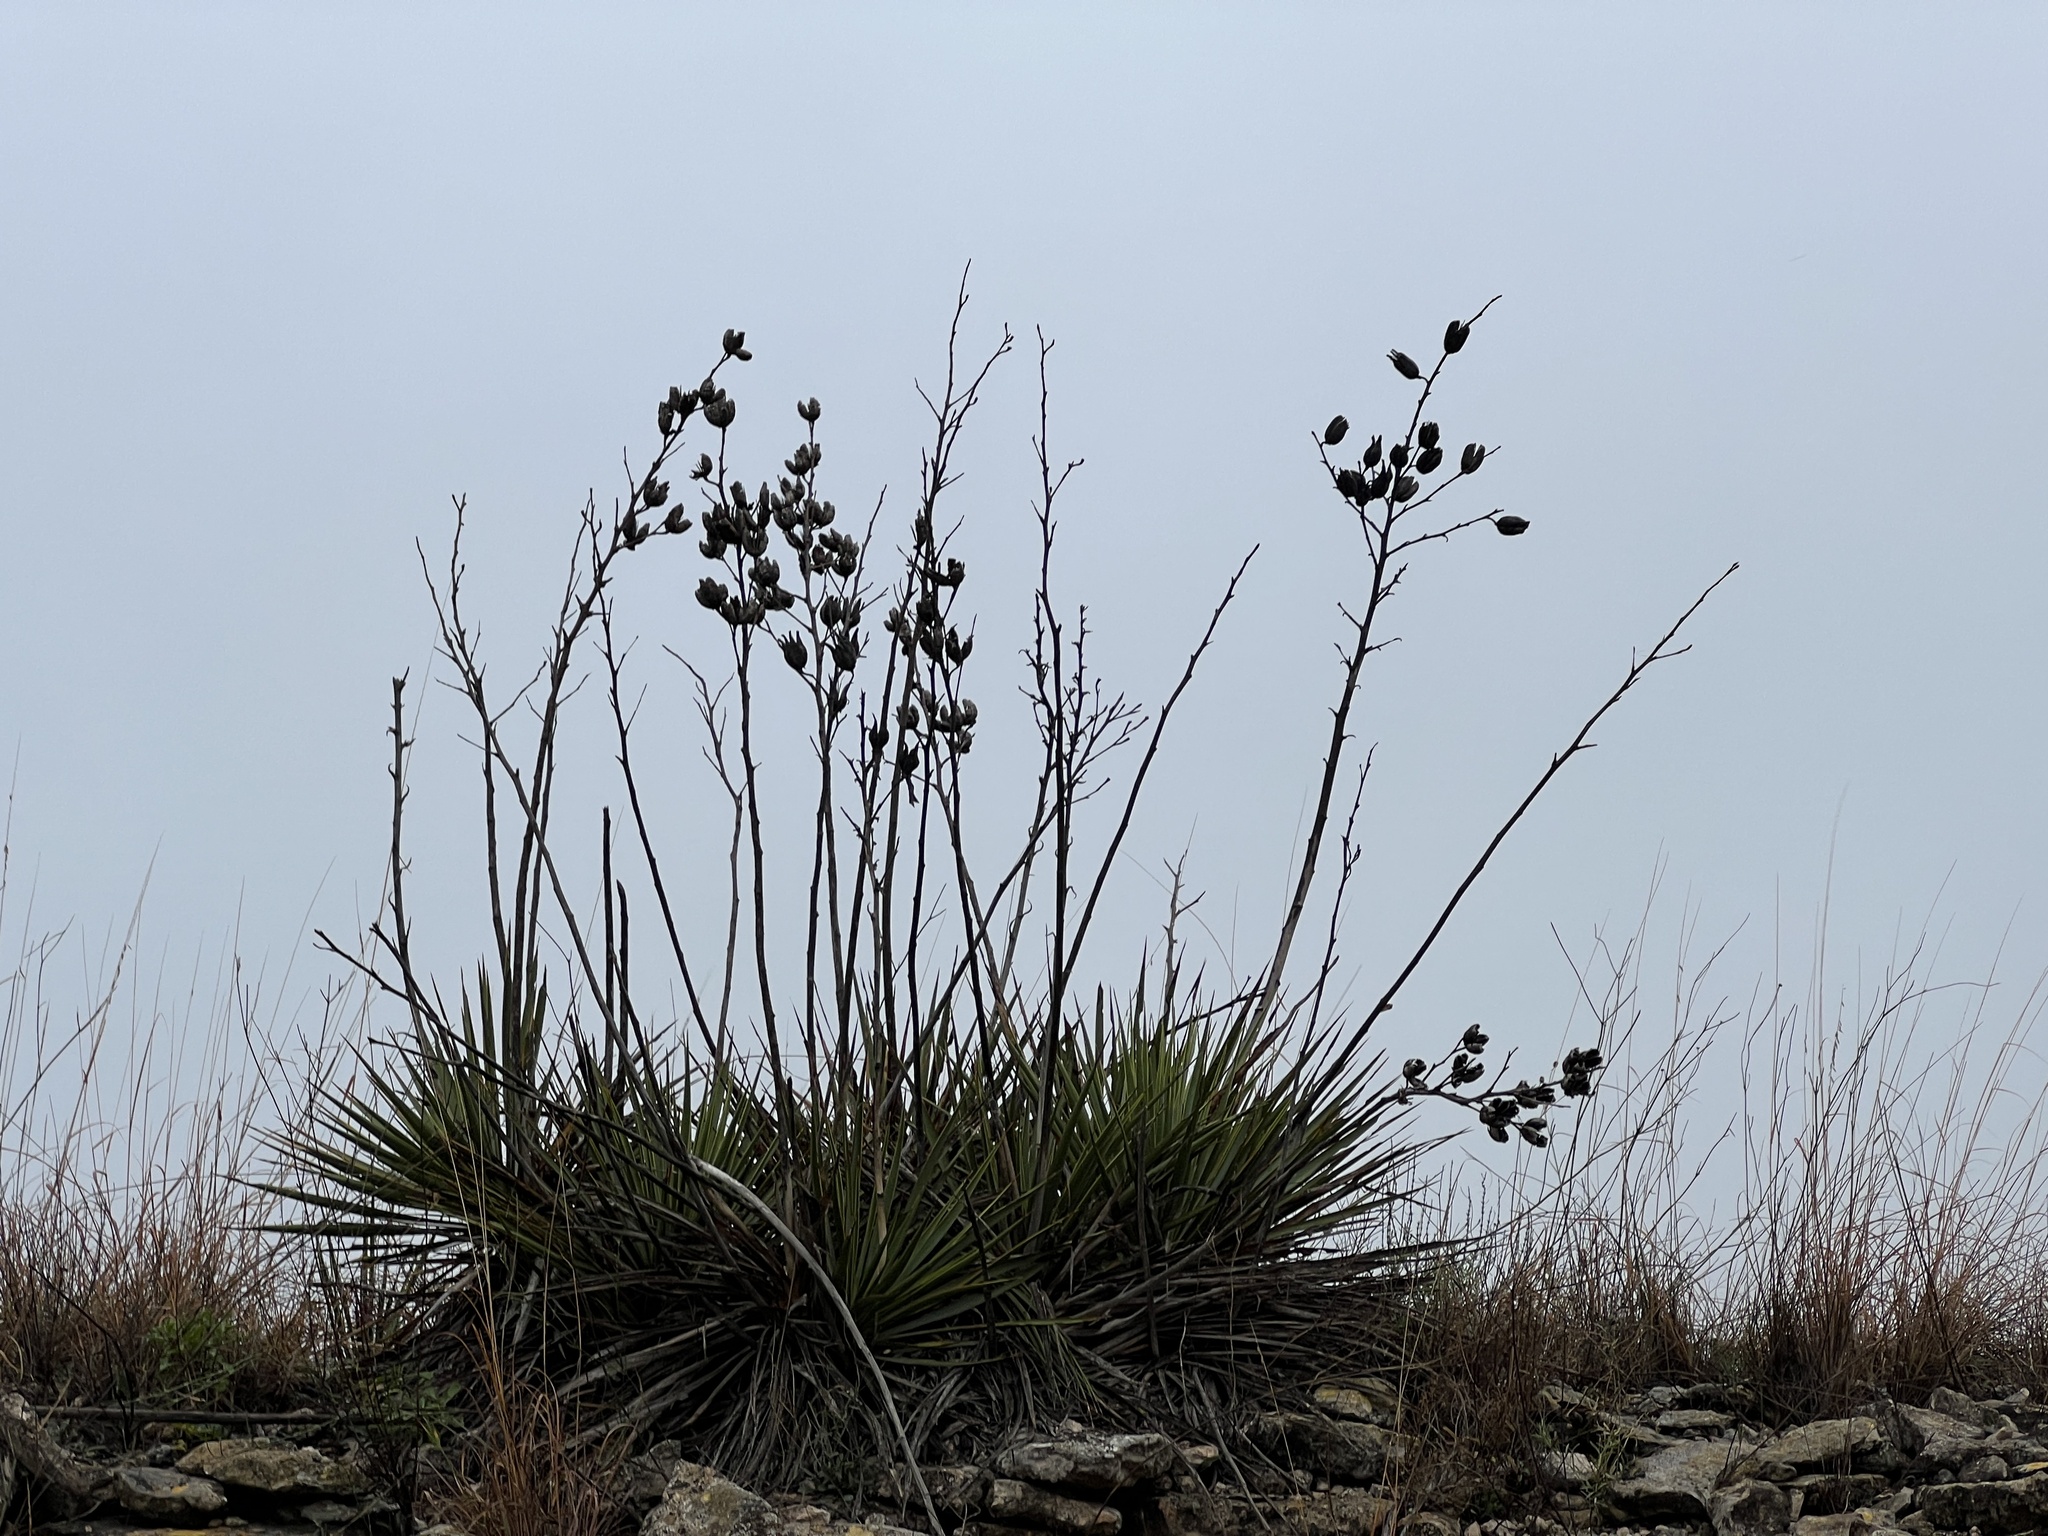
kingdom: Plantae
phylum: Tracheophyta
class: Liliopsida
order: Asparagales
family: Asparagaceae
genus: Yucca
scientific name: Yucca reverchonii
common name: San angelo yucca
